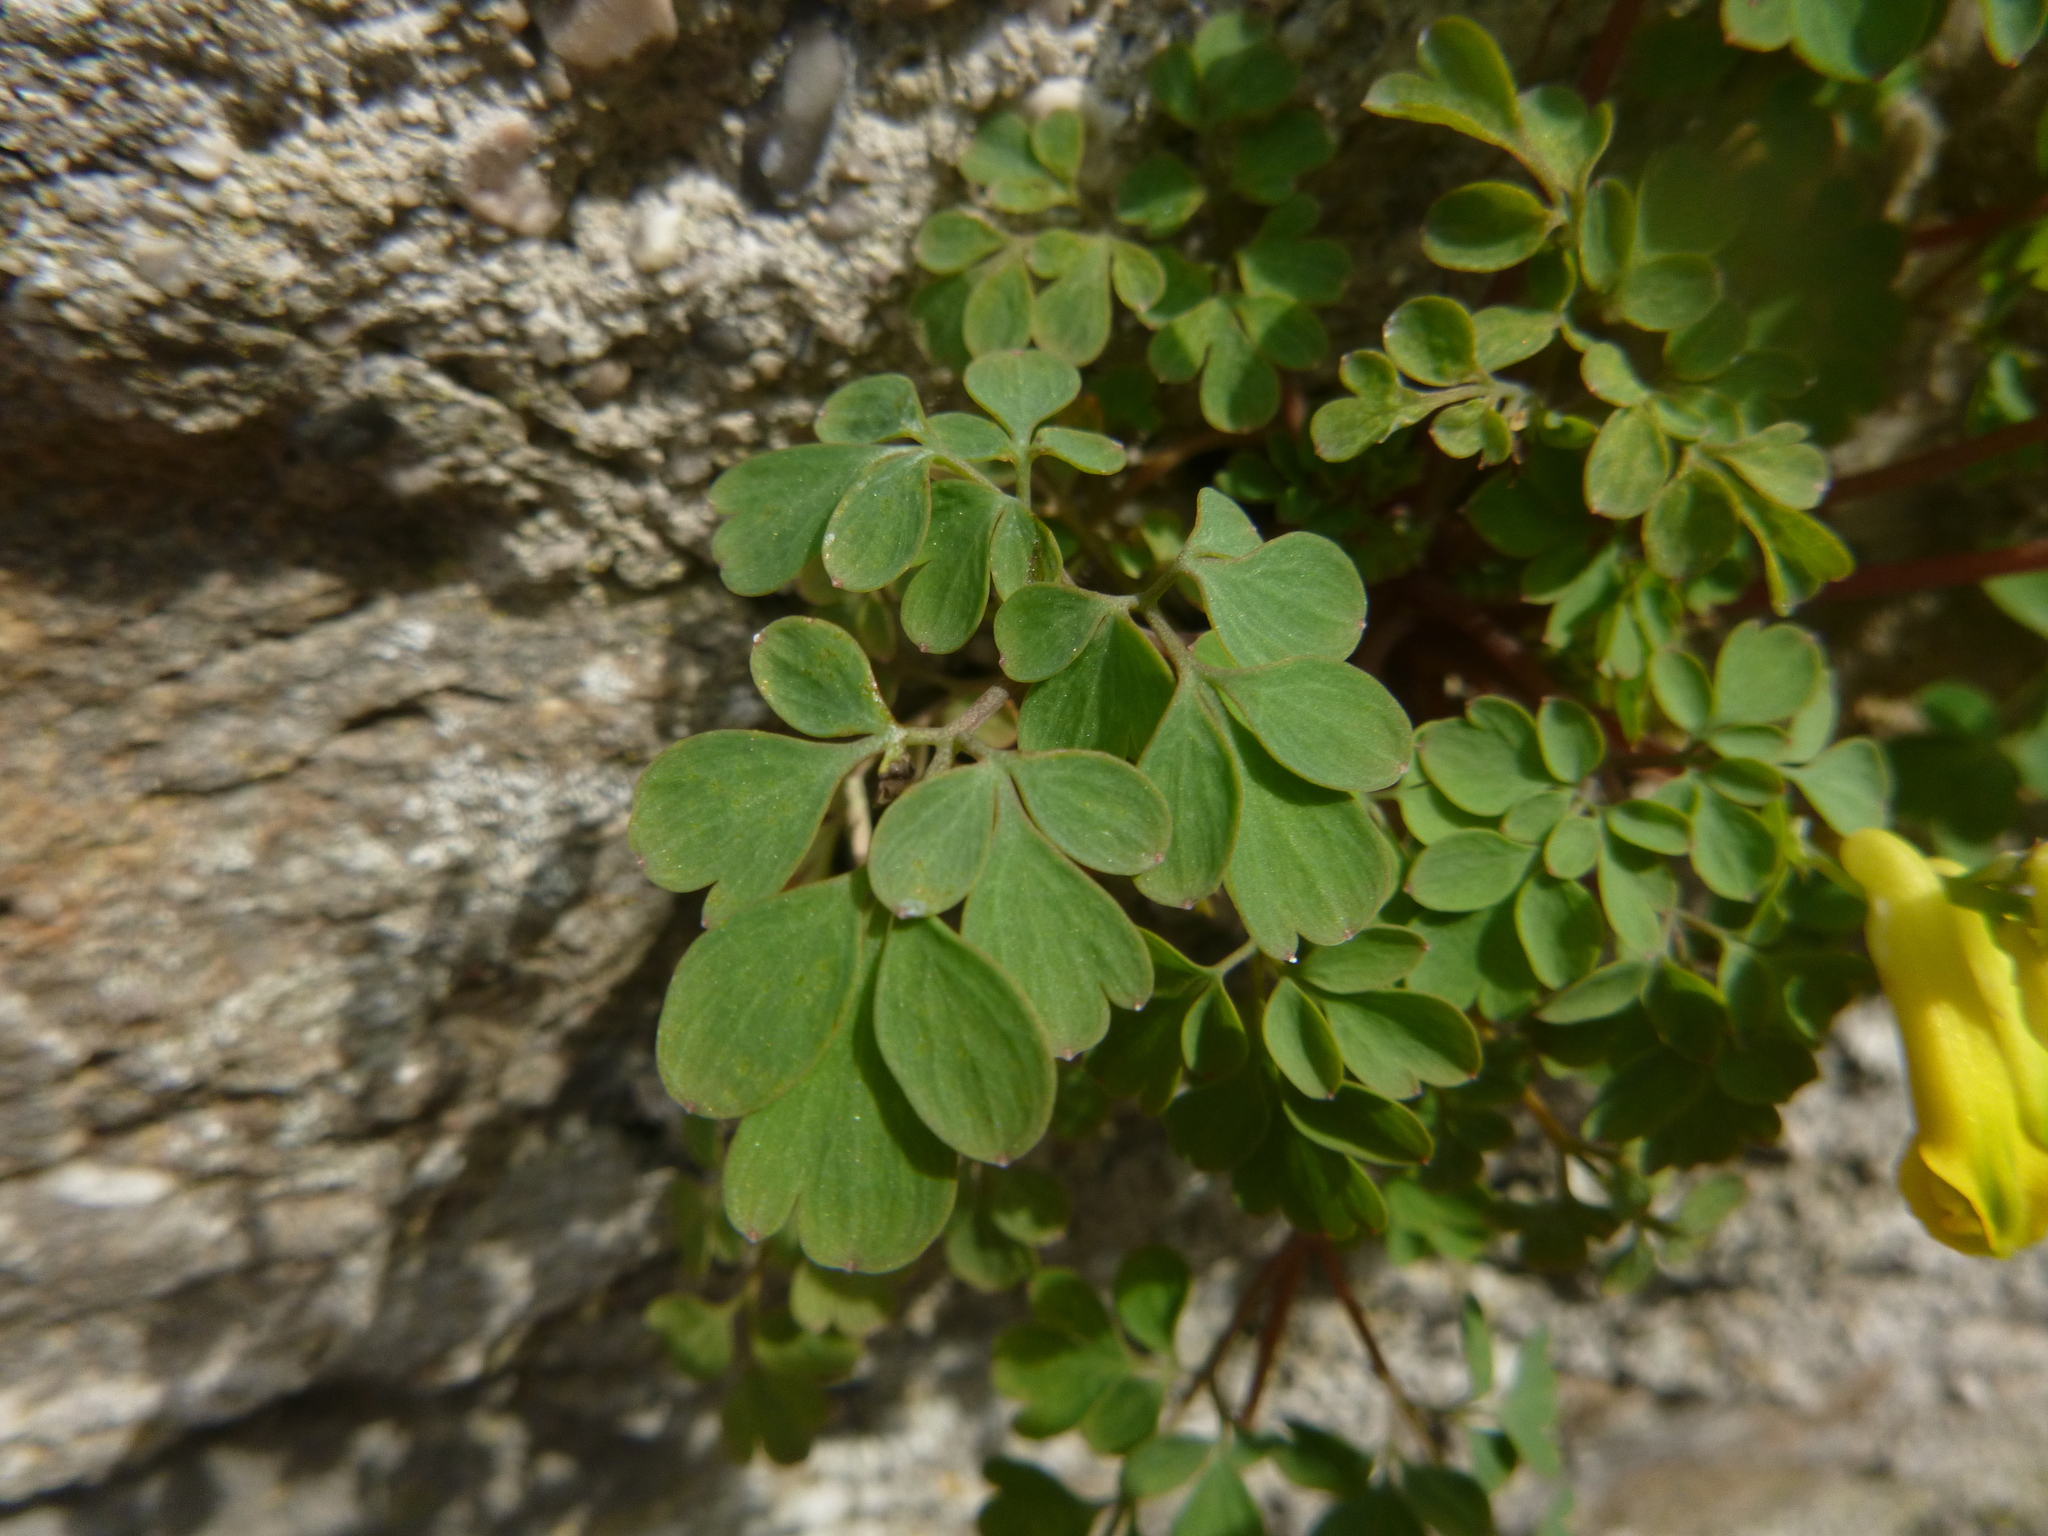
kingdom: Plantae
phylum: Tracheophyta
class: Magnoliopsida
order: Ranunculales
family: Papaveraceae
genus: Pseudofumaria
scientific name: Pseudofumaria lutea
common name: Yellow corydalis
